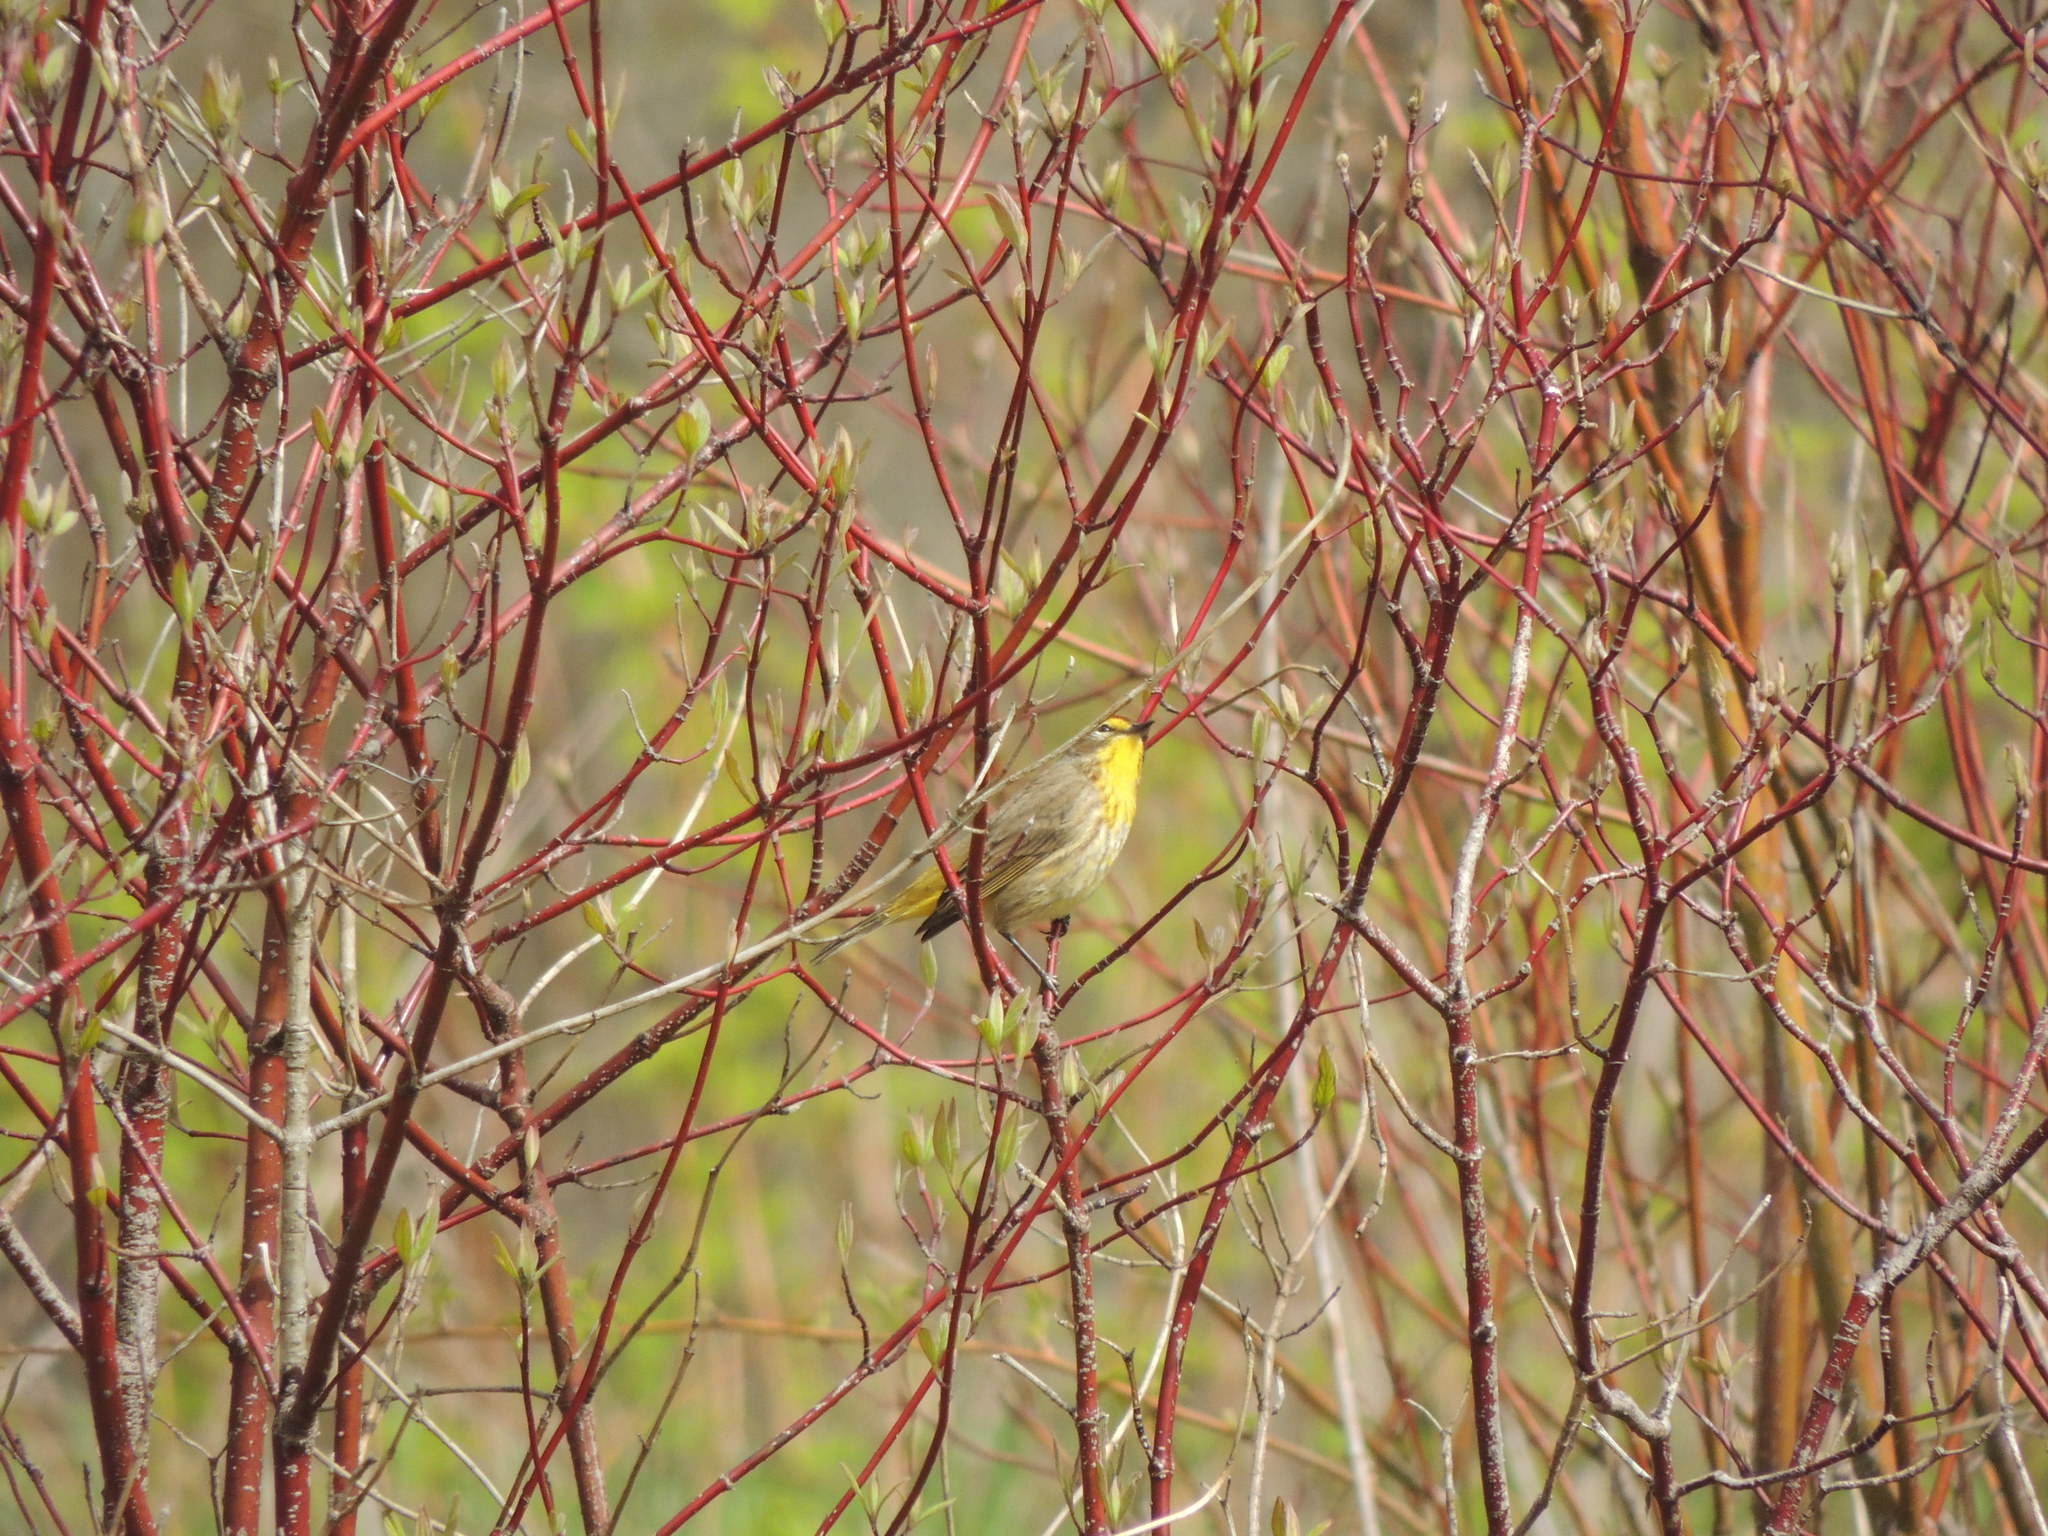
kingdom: Animalia
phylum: Chordata
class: Aves
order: Passeriformes
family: Parulidae
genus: Setophaga
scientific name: Setophaga palmarum
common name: Palm warbler
